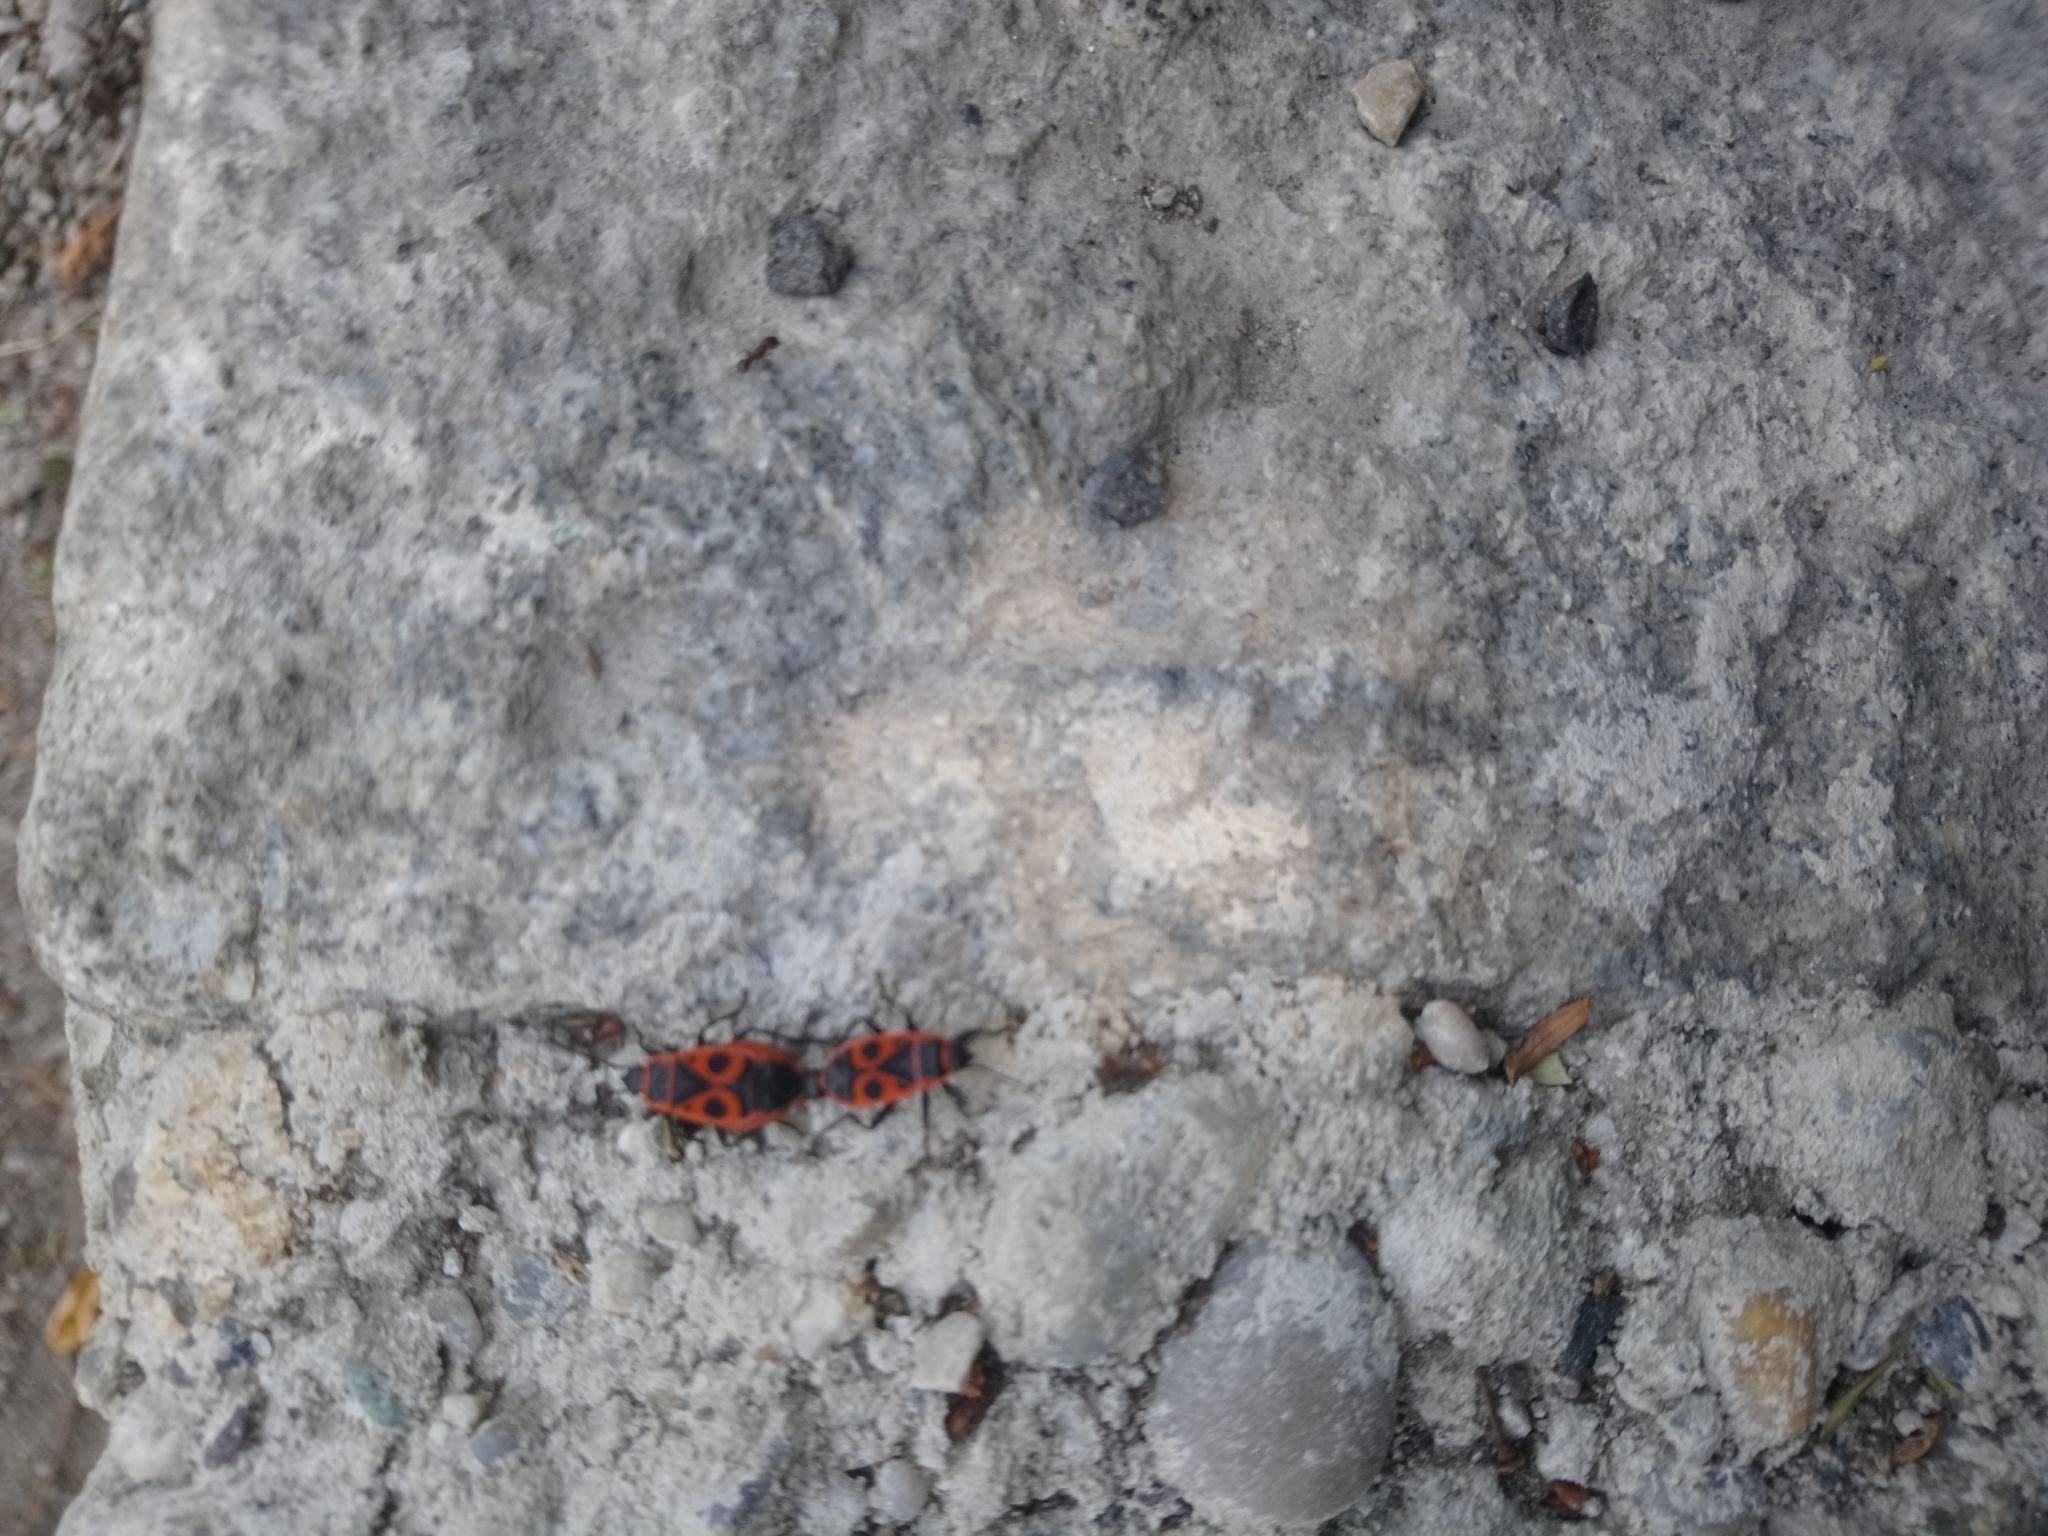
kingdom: Animalia
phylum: Arthropoda
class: Insecta
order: Hemiptera
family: Pyrrhocoridae
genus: Pyrrhocoris
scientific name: Pyrrhocoris apterus
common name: Firebug
